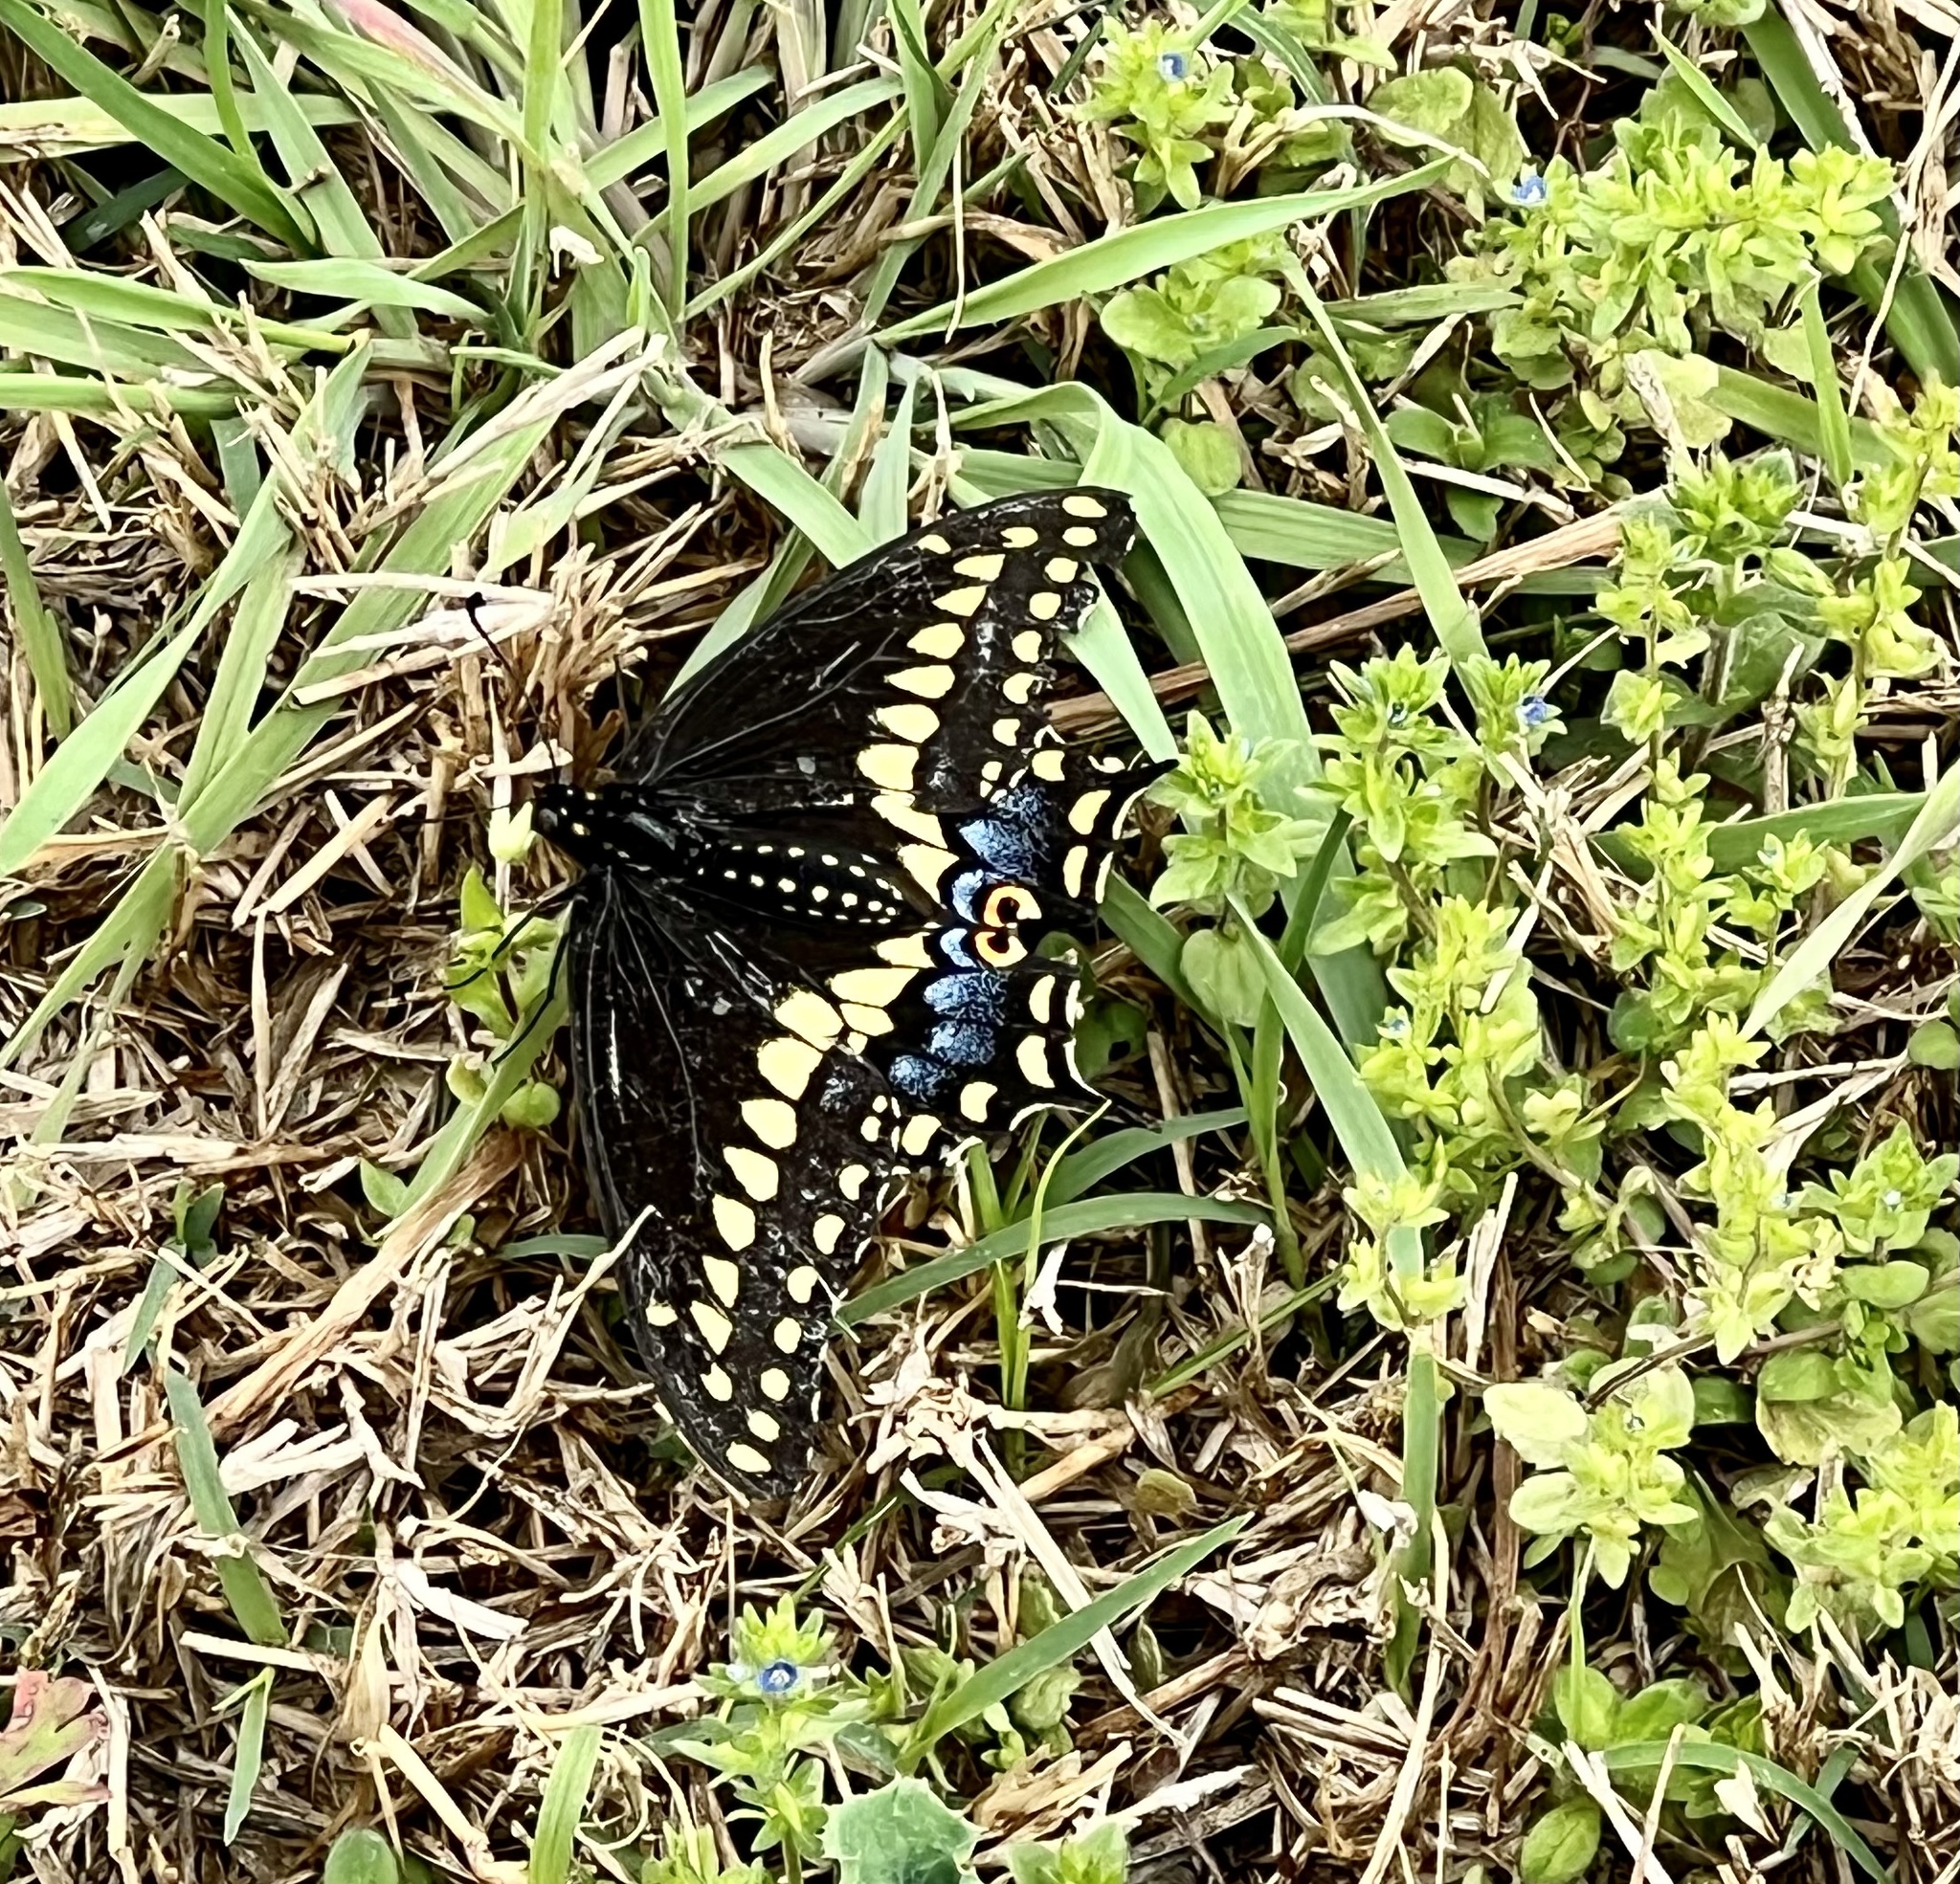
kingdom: Animalia
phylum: Arthropoda
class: Insecta
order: Lepidoptera
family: Papilionidae
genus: Papilio
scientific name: Papilio polyxenes
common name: Black swallowtail
